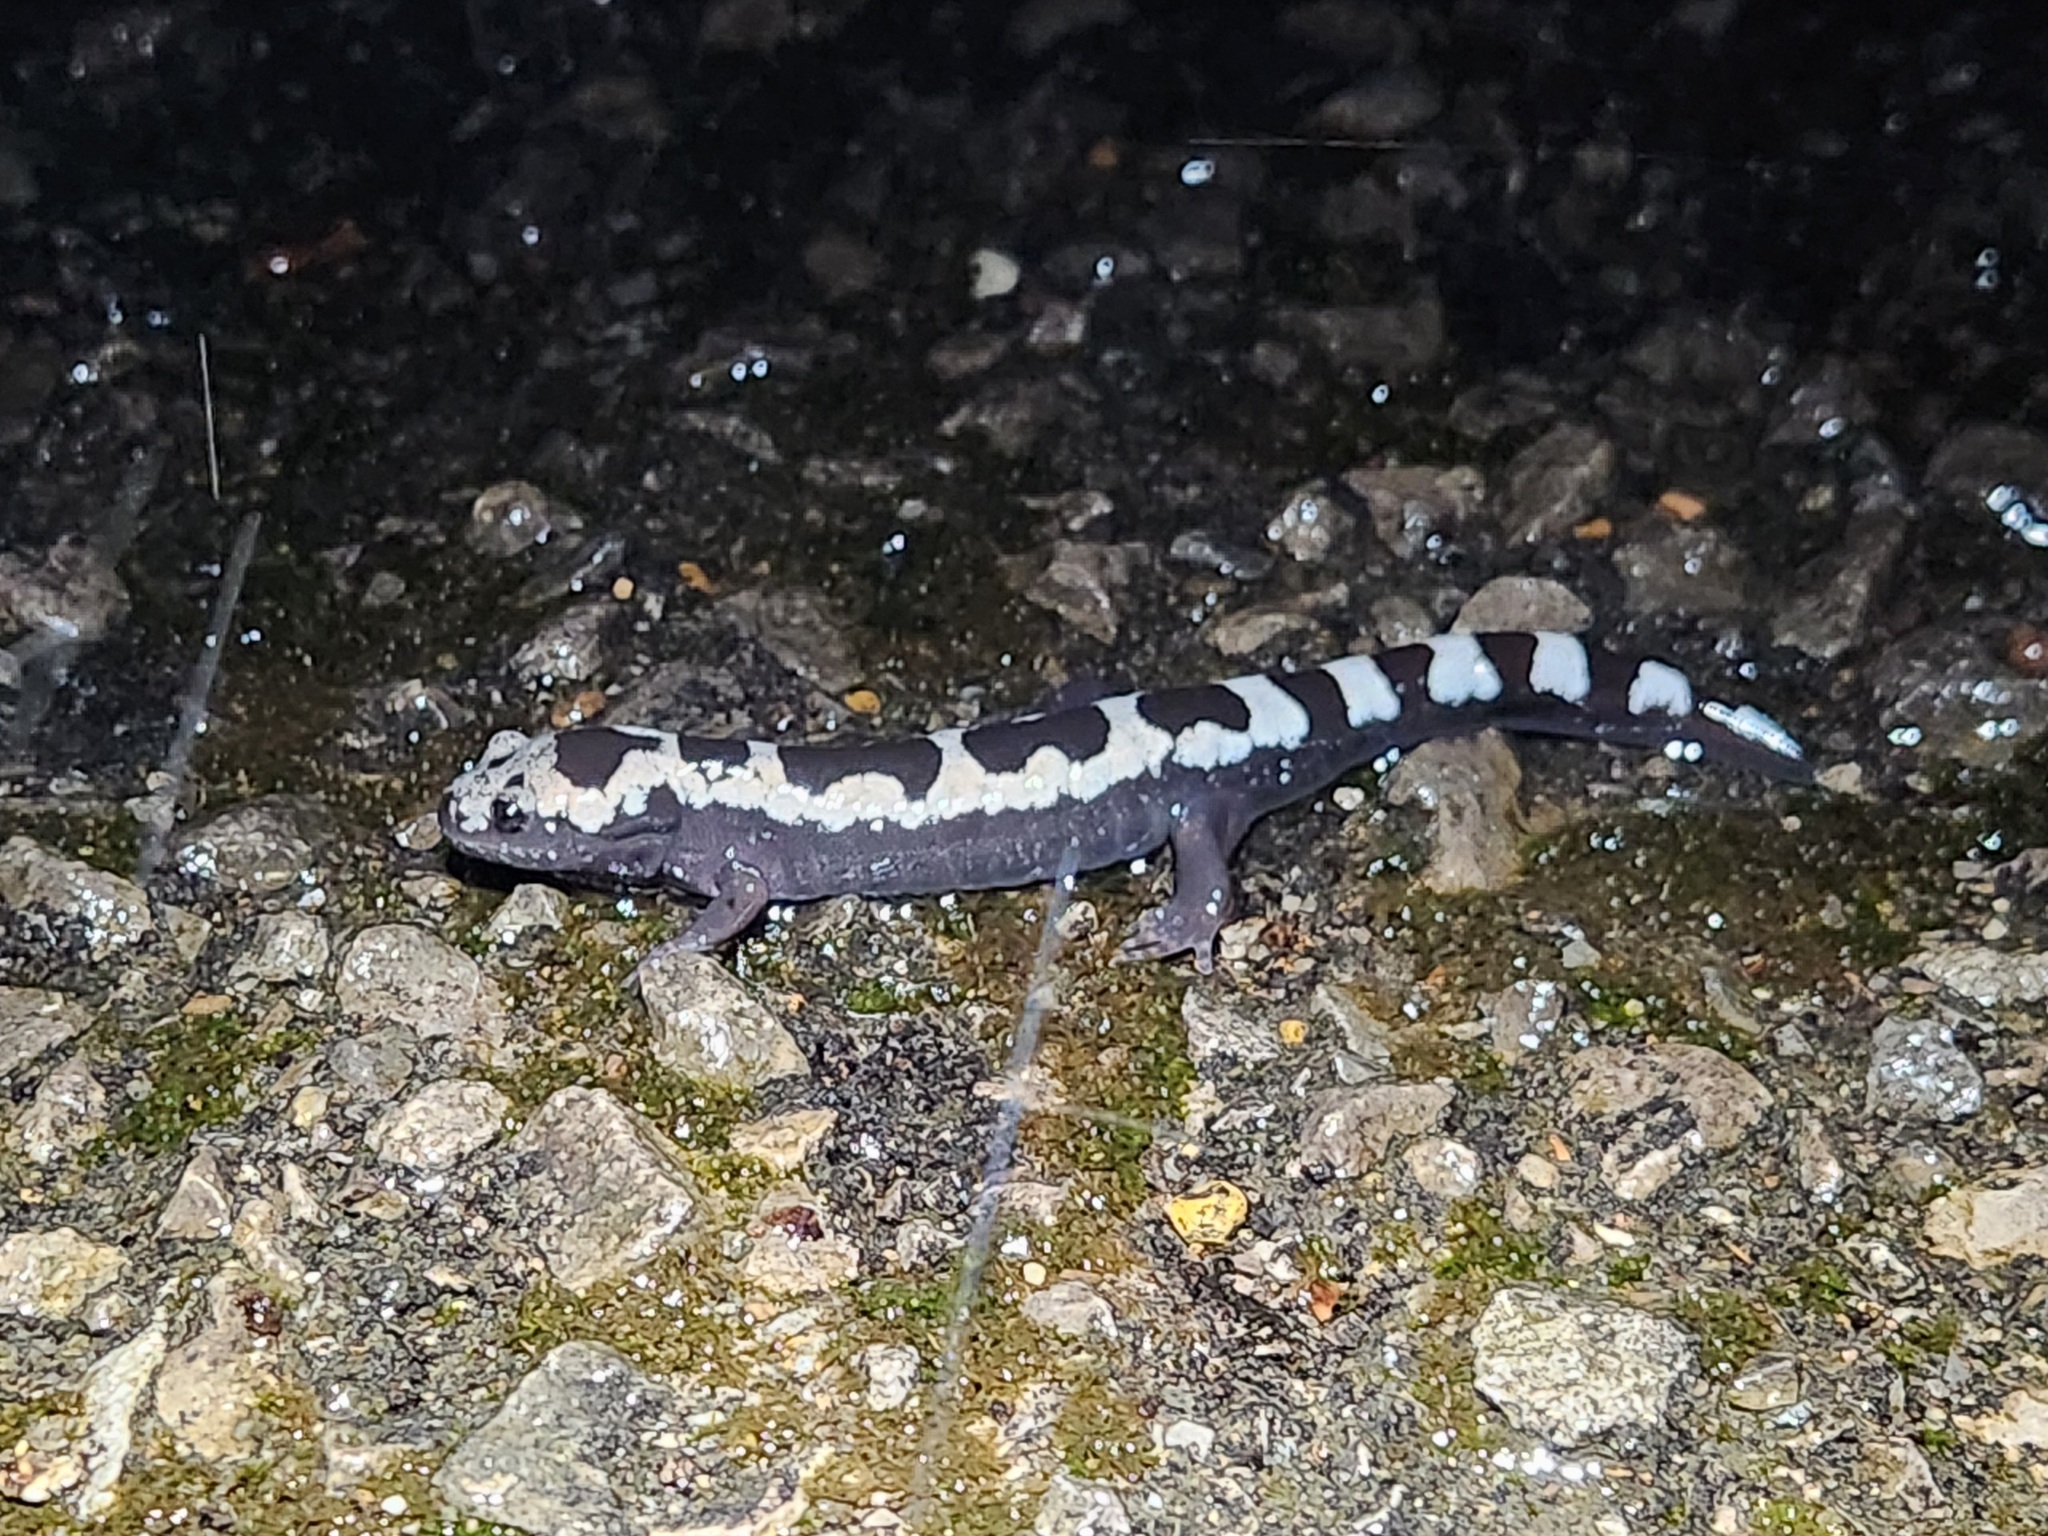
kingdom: Animalia
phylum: Chordata
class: Amphibia
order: Caudata
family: Ambystomatidae
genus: Ambystoma
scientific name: Ambystoma opacum
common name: Marbled salamander
